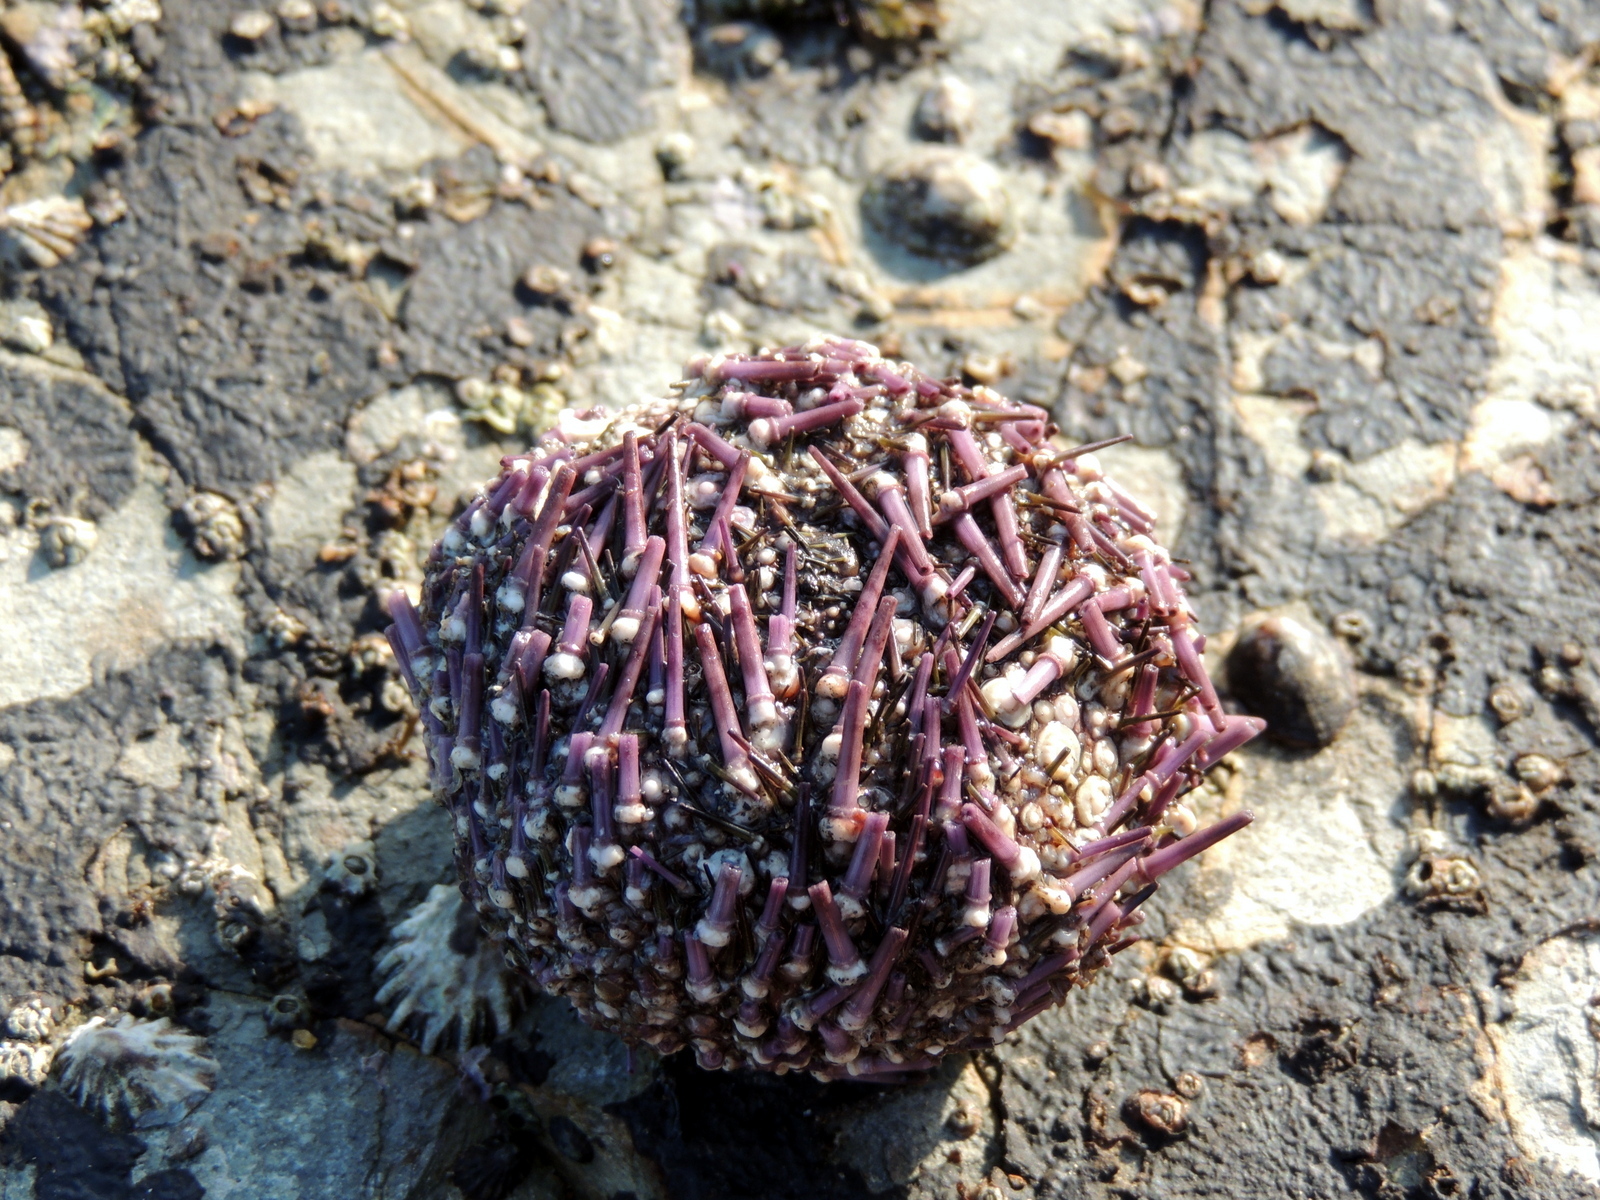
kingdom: Animalia
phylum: Echinodermata
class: Echinoidea
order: Camarodonta
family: Strongylocentrotidae
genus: Strongylocentrotus
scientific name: Strongylocentrotus purpuratus
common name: Purple sea urchin
